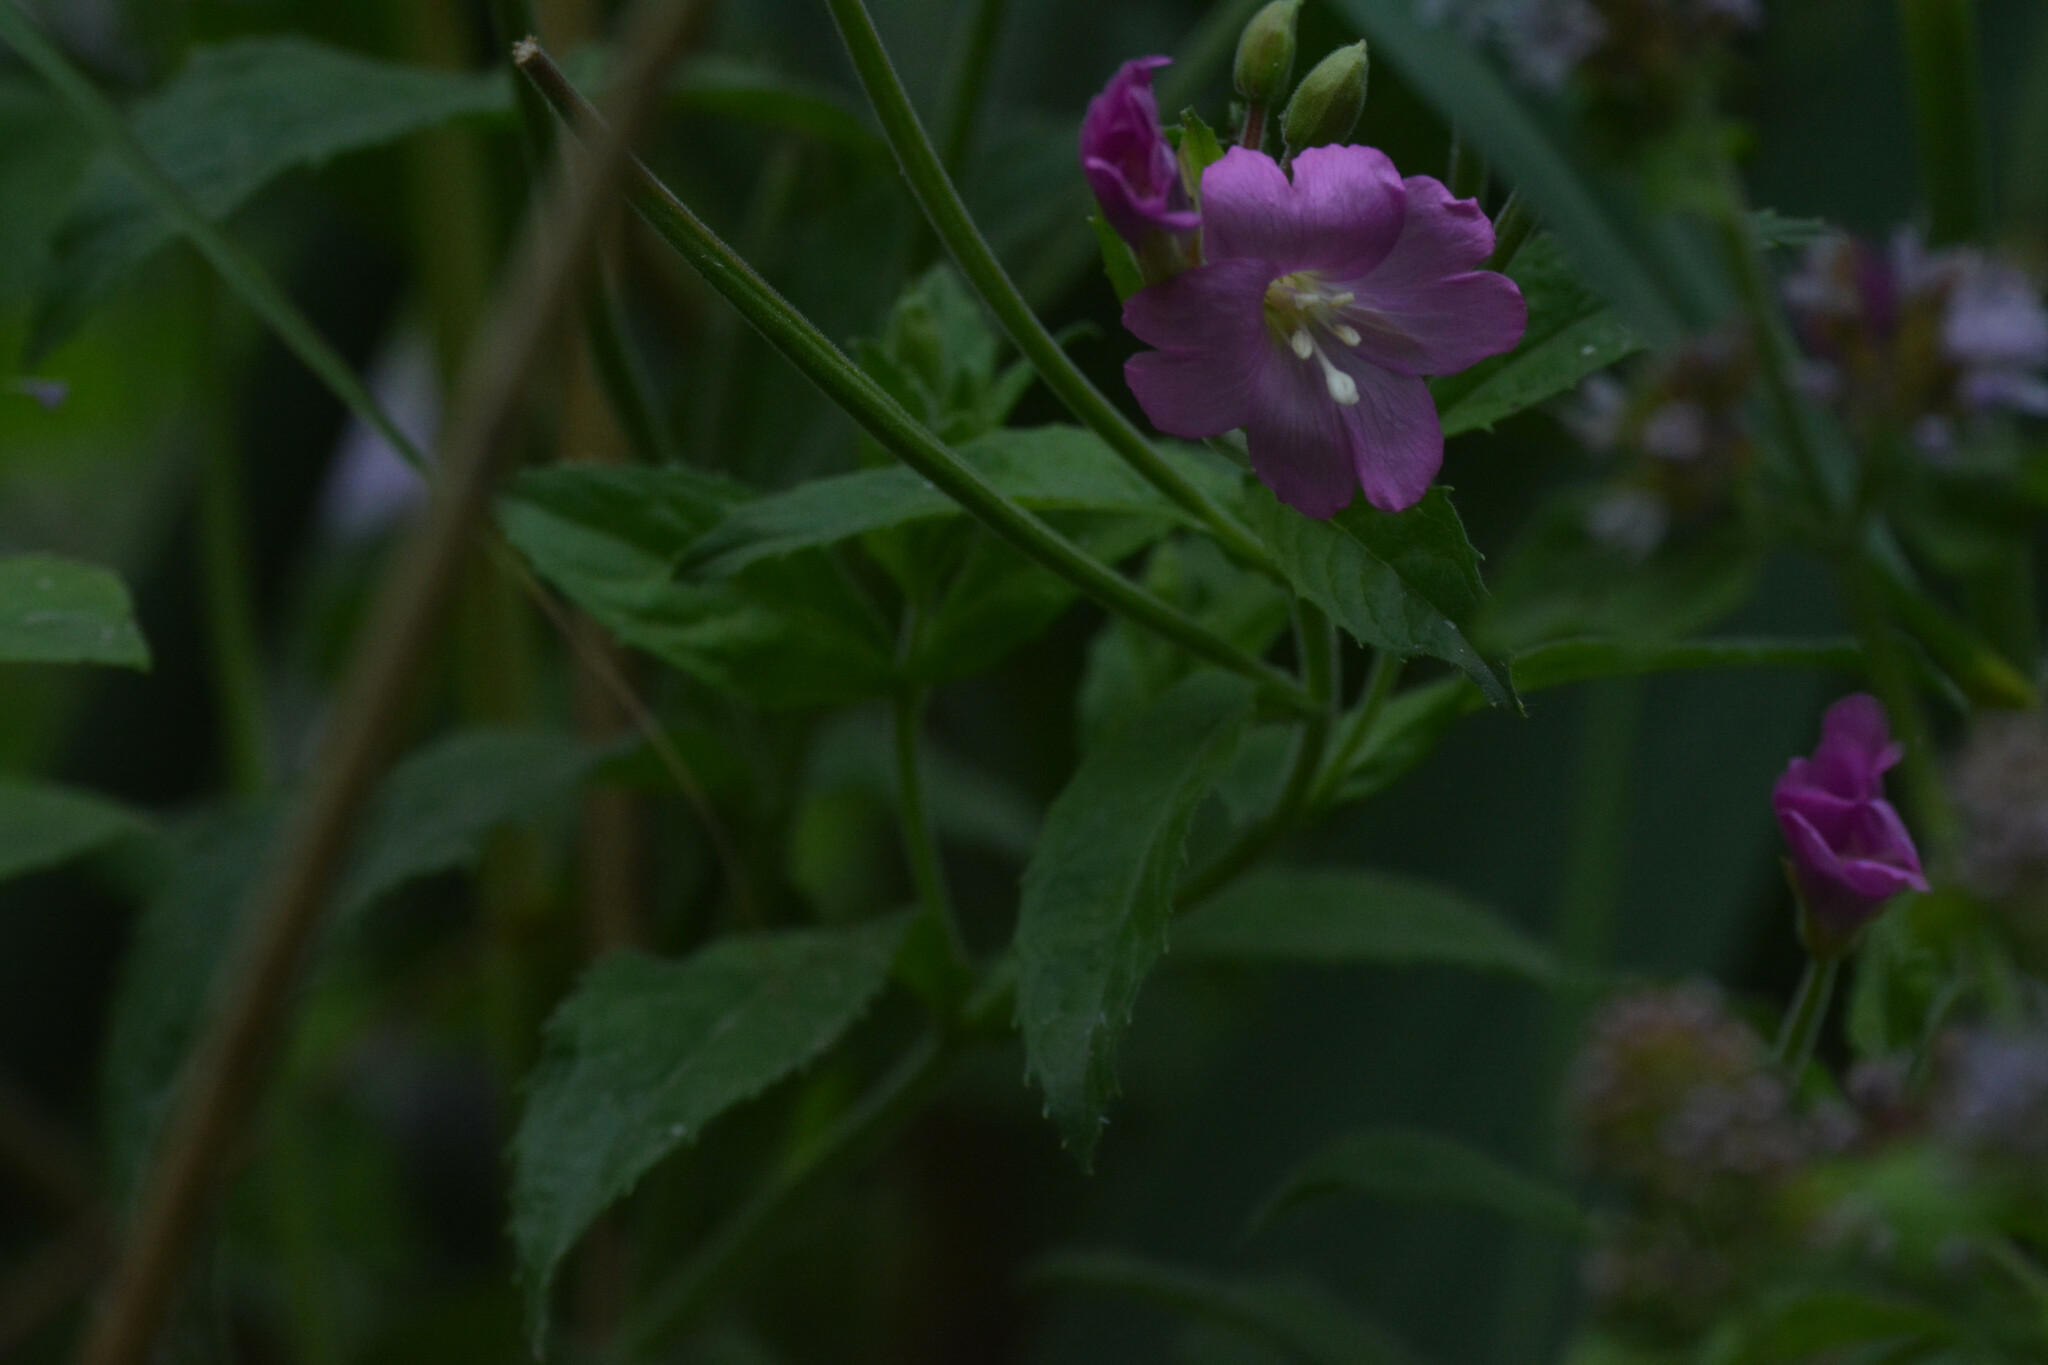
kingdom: Plantae
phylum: Tracheophyta
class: Magnoliopsida
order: Myrtales
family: Onagraceae
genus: Epilobium
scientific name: Epilobium hirsutum
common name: Great willowherb
